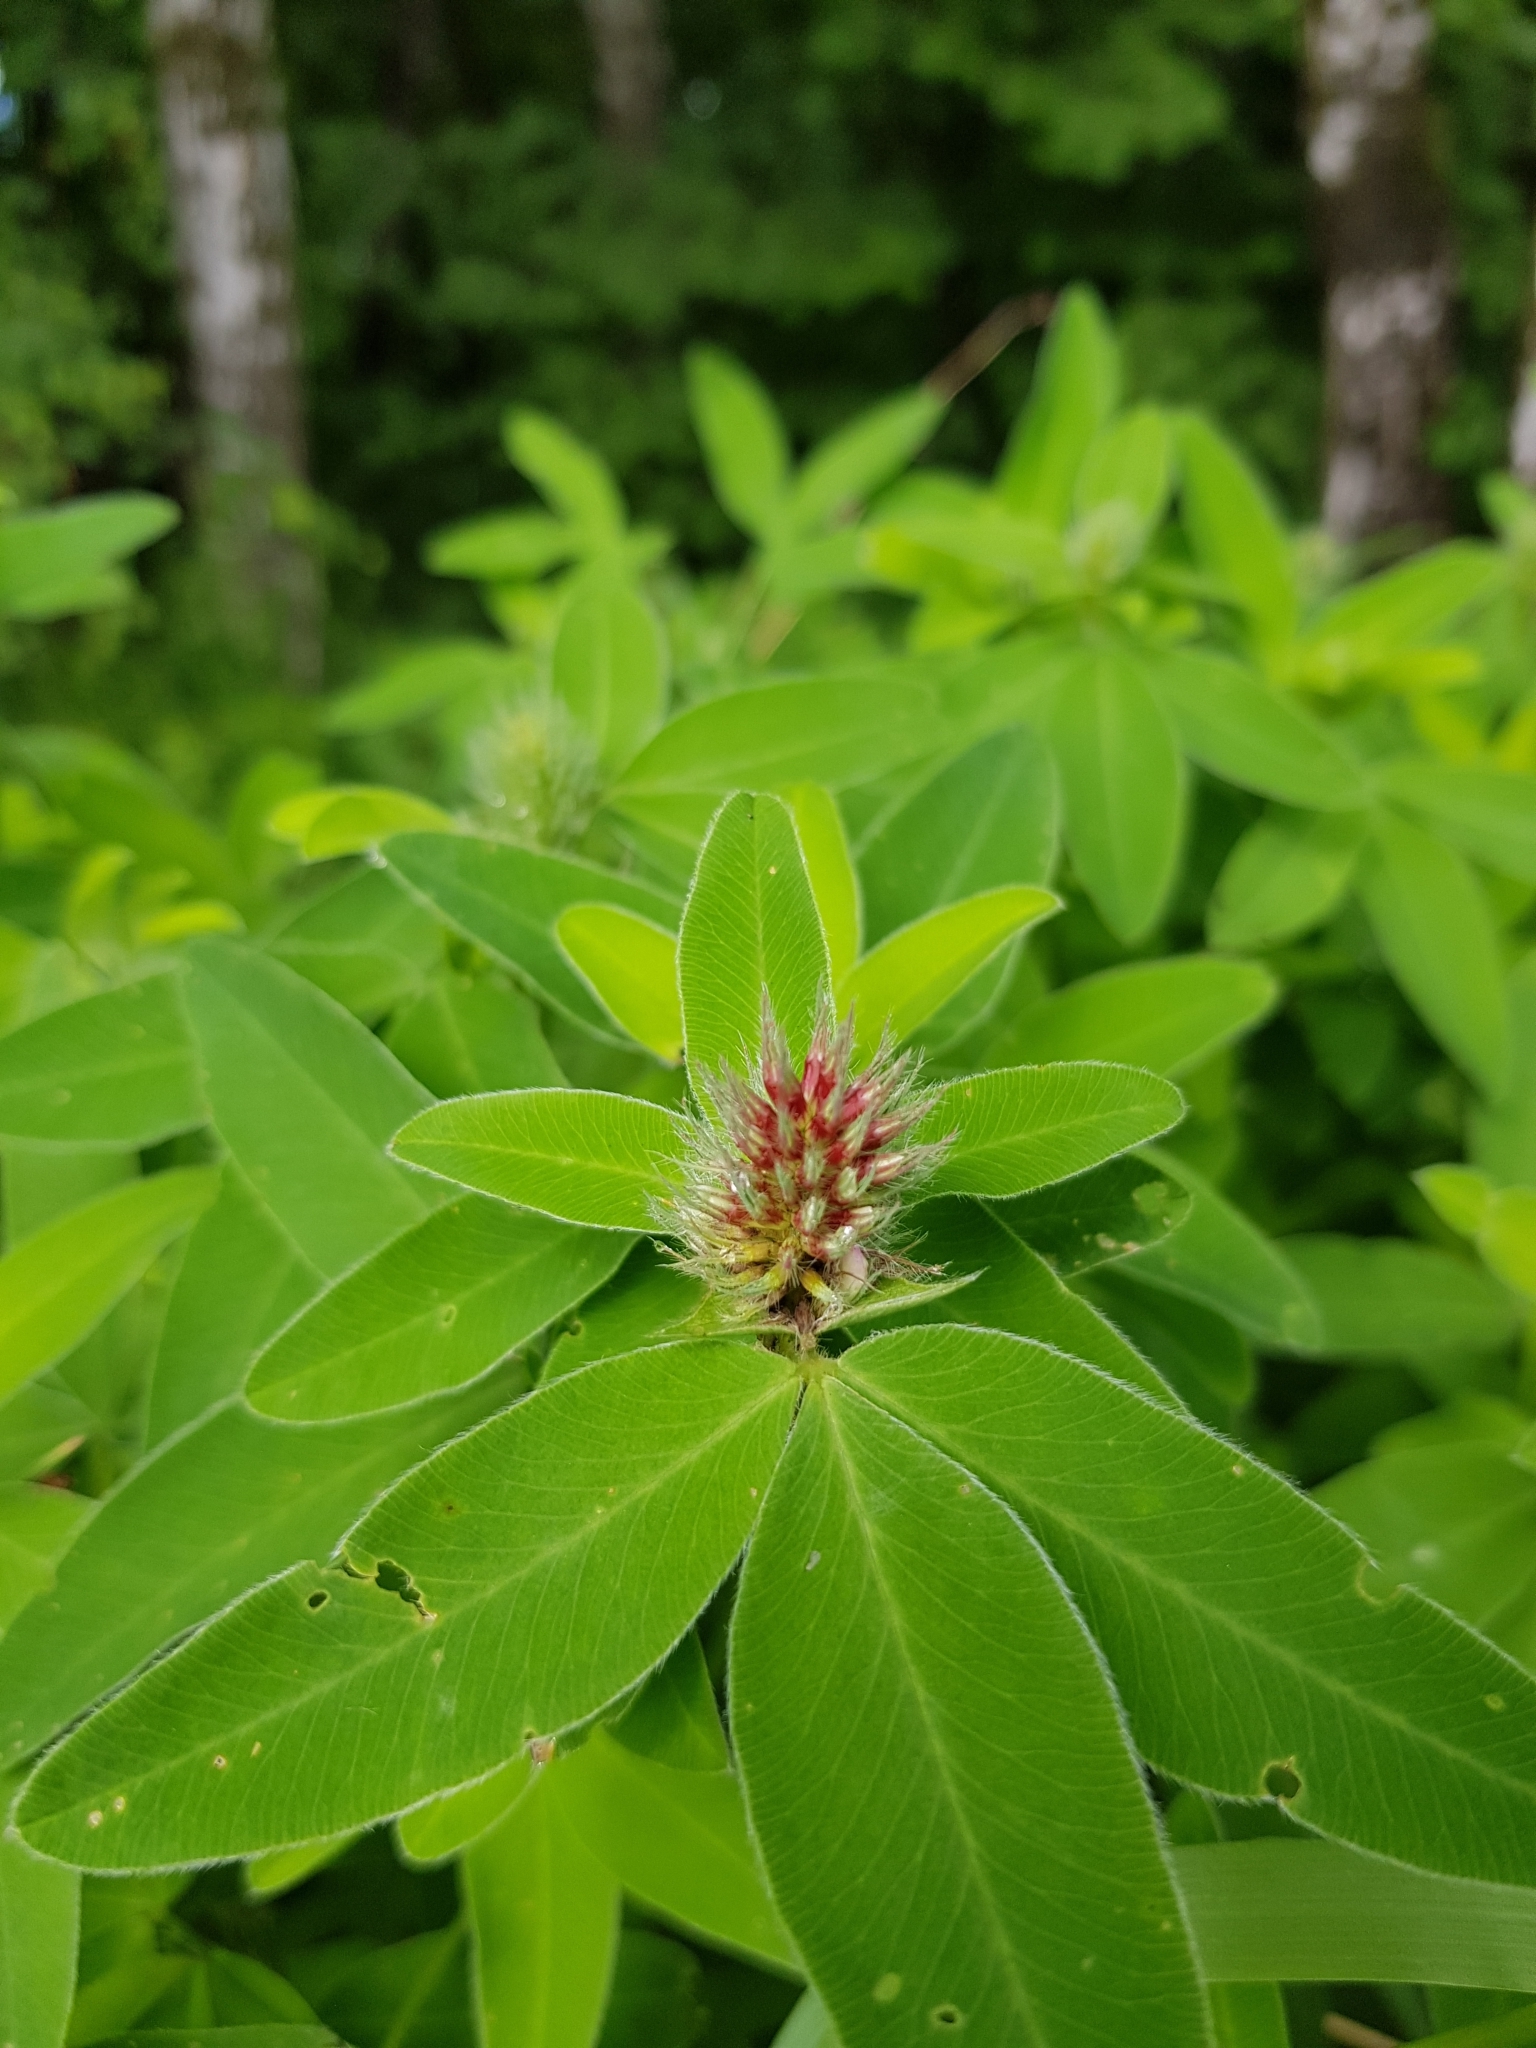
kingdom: Plantae
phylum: Tracheophyta
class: Magnoliopsida
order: Fabales
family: Fabaceae
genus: Trifolium
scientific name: Trifolium medium
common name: Zigzag clover
